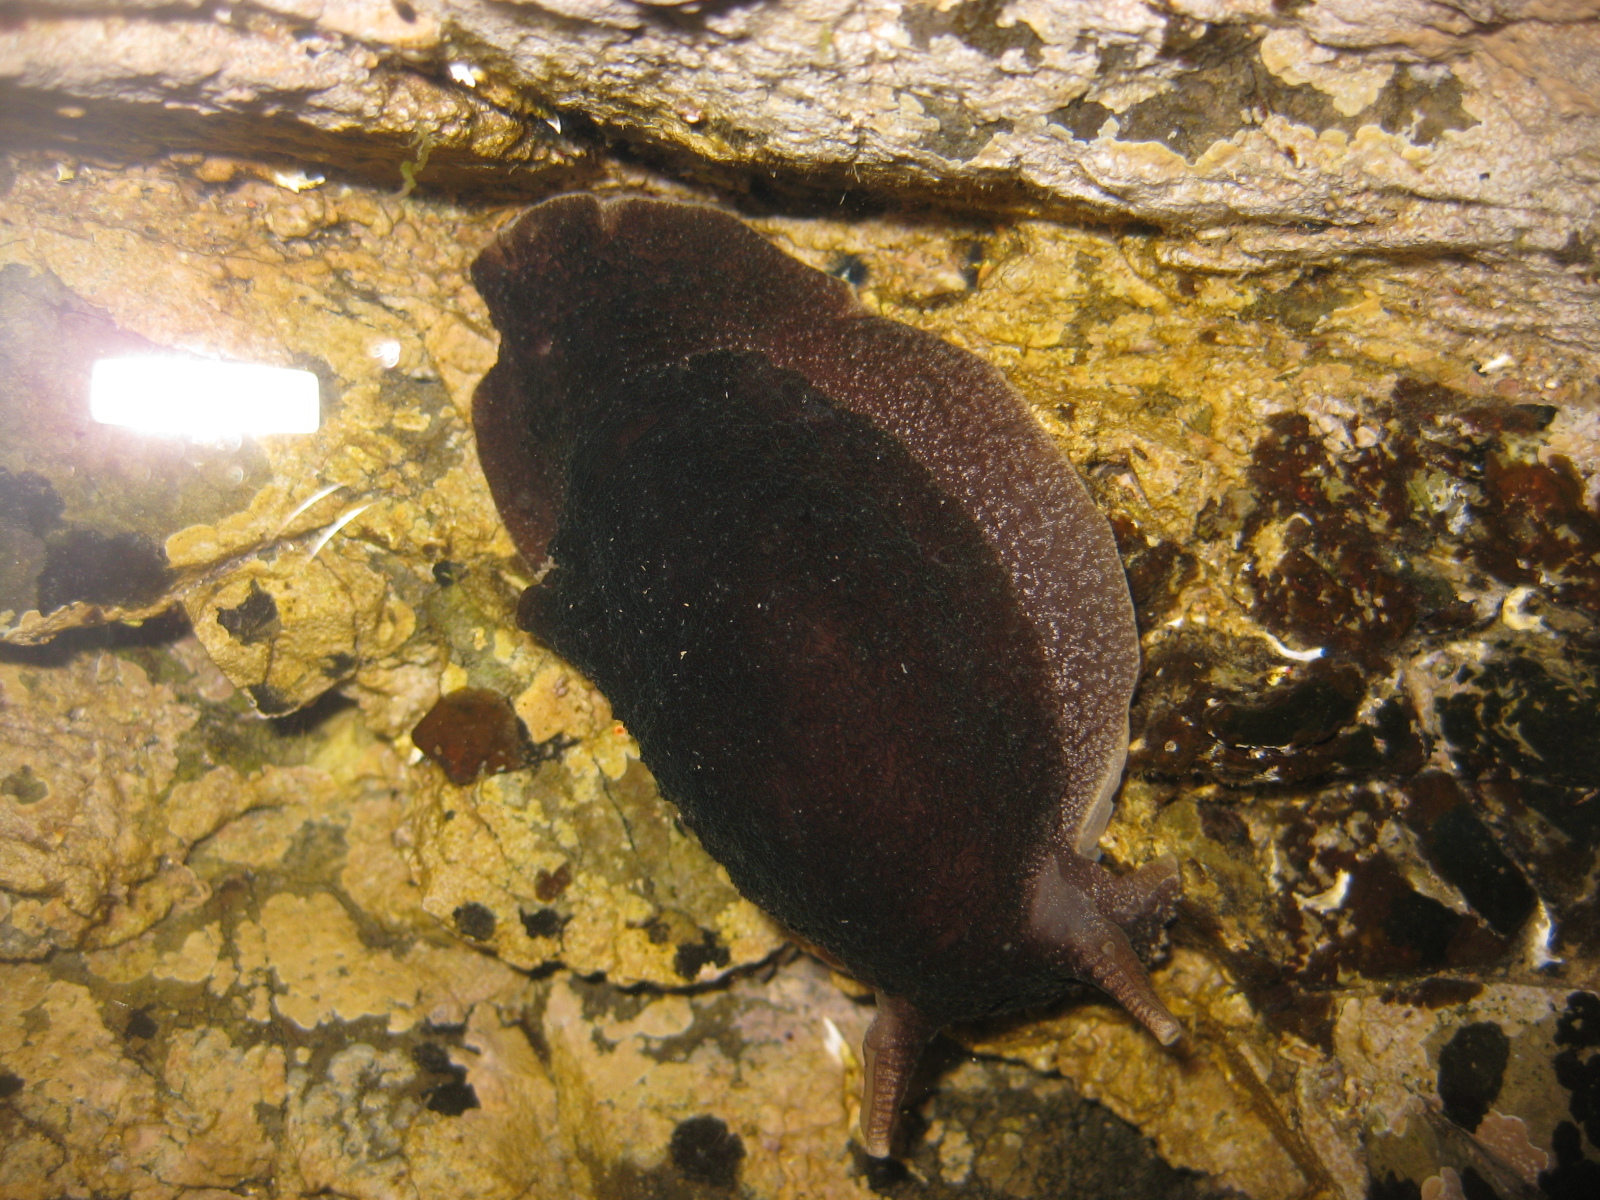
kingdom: Animalia
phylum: Mollusca
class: Gastropoda
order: Pleurobranchida
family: Pleurobranchaeidae
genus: Pleurobranchaea
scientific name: Pleurobranchaea maculata
